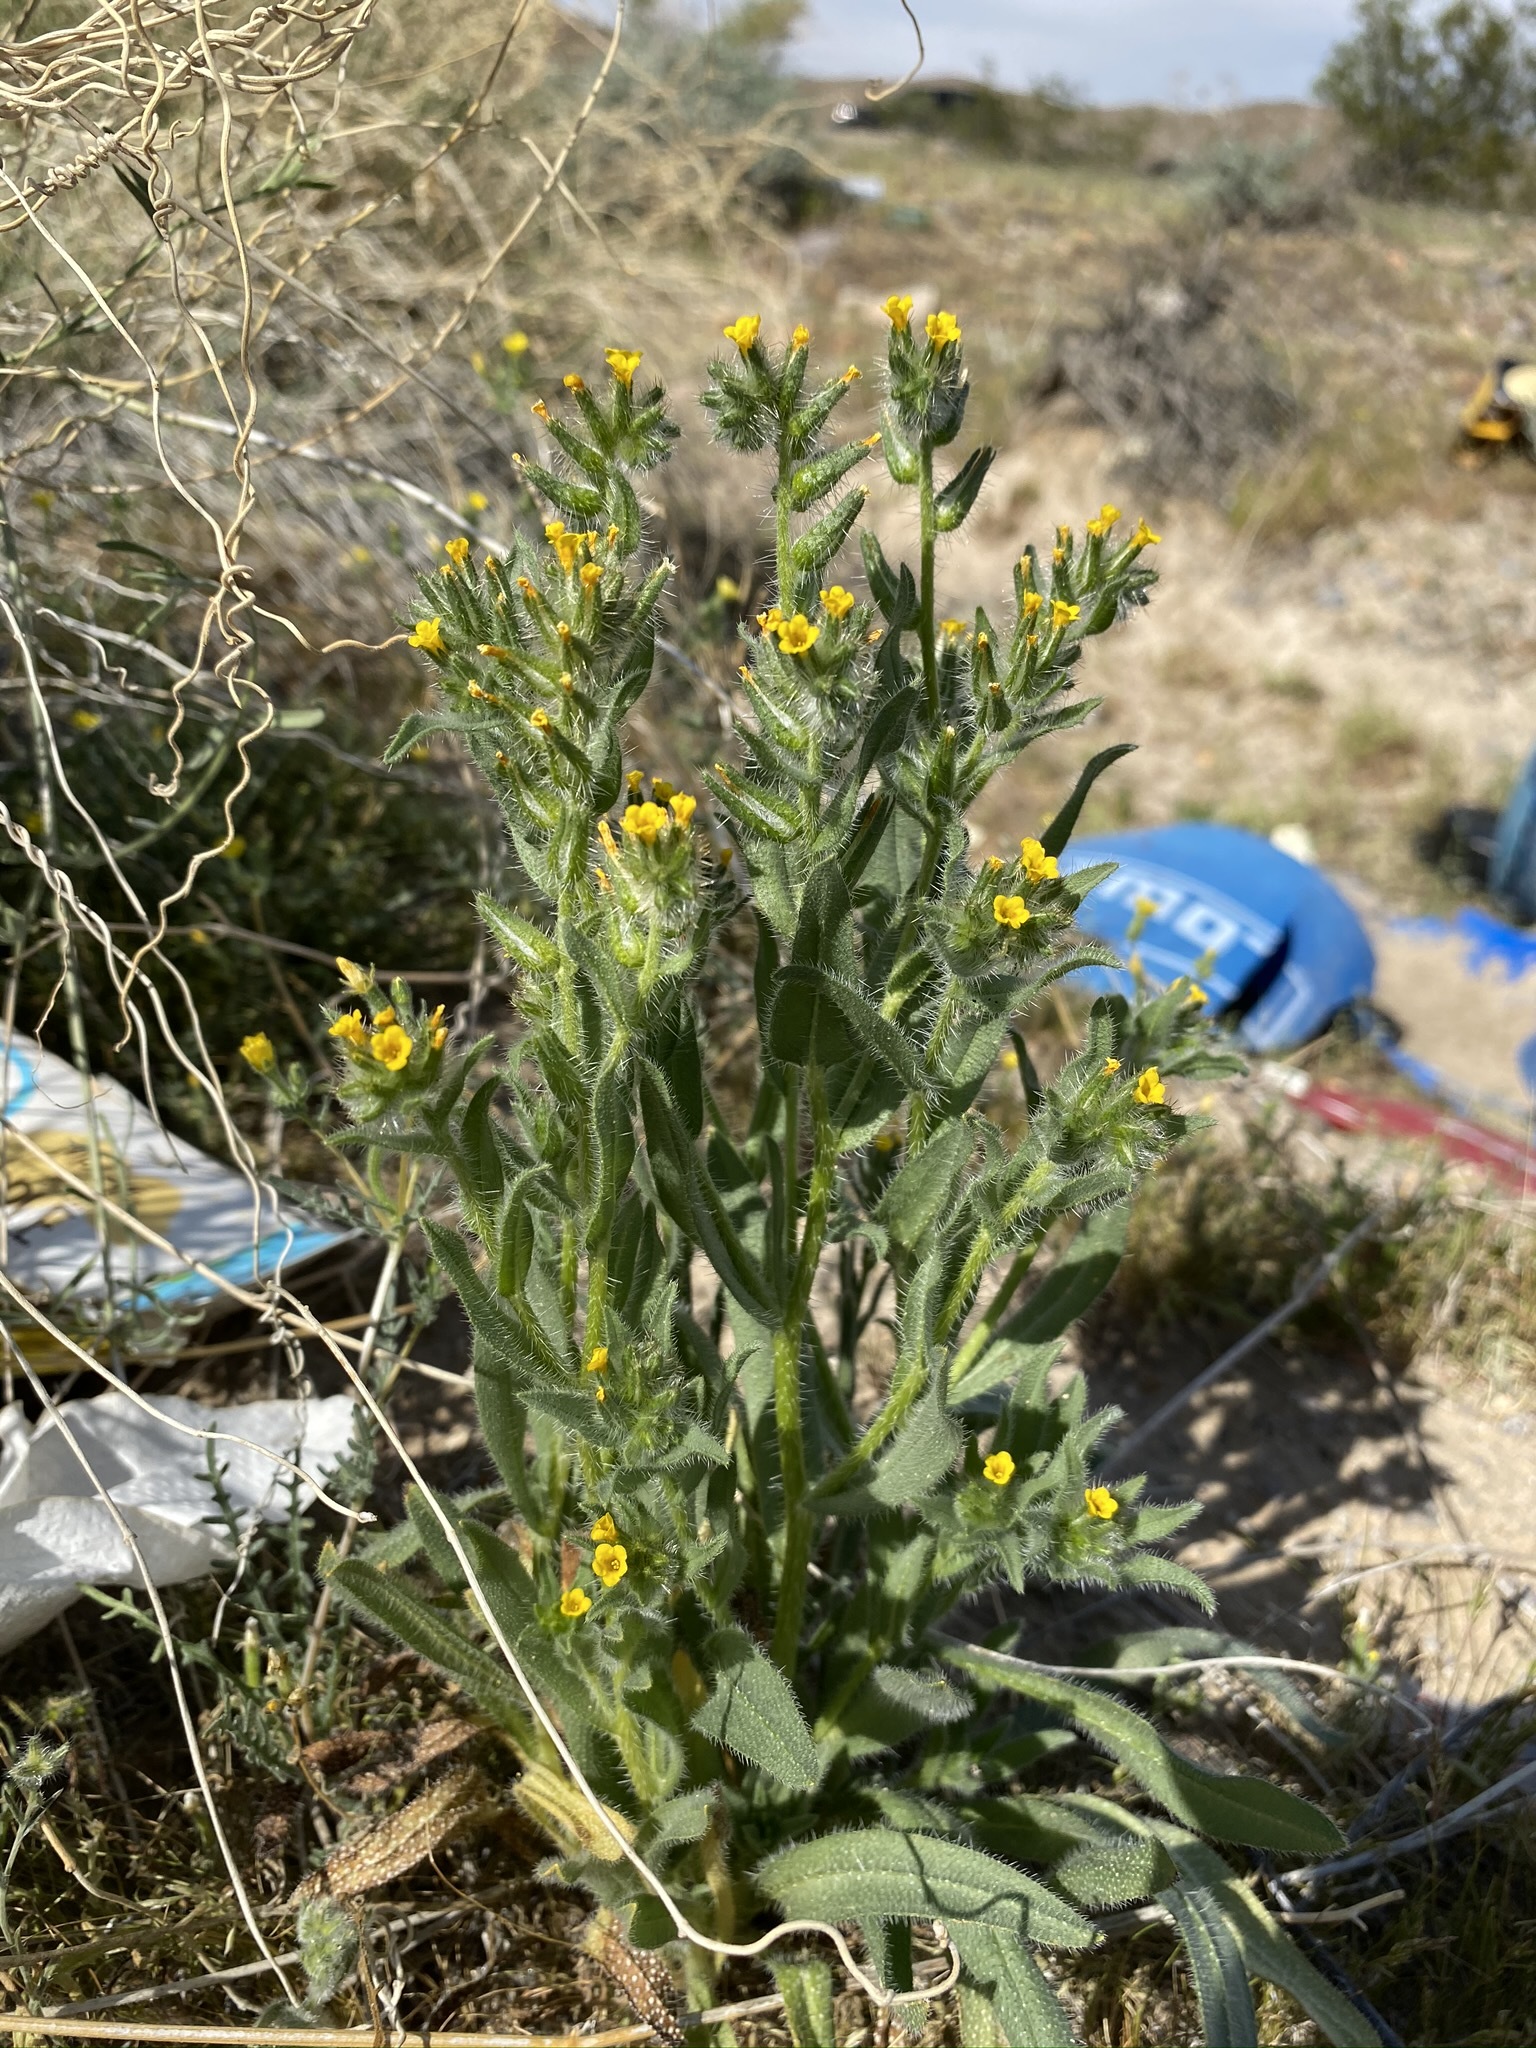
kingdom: Plantae
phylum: Tracheophyta
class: Magnoliopsida
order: Boraginales
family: Boraginaceae
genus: Amsinckia
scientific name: Amsinckia tessellata
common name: Tessellate fiddleneck
